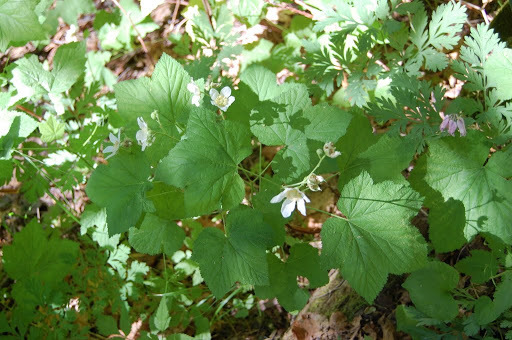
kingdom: Plantae
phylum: Tracheophyta
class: Magnoliopsida
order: Rosales
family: Rosaceae
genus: Rubus
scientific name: Rubus parviflorus
